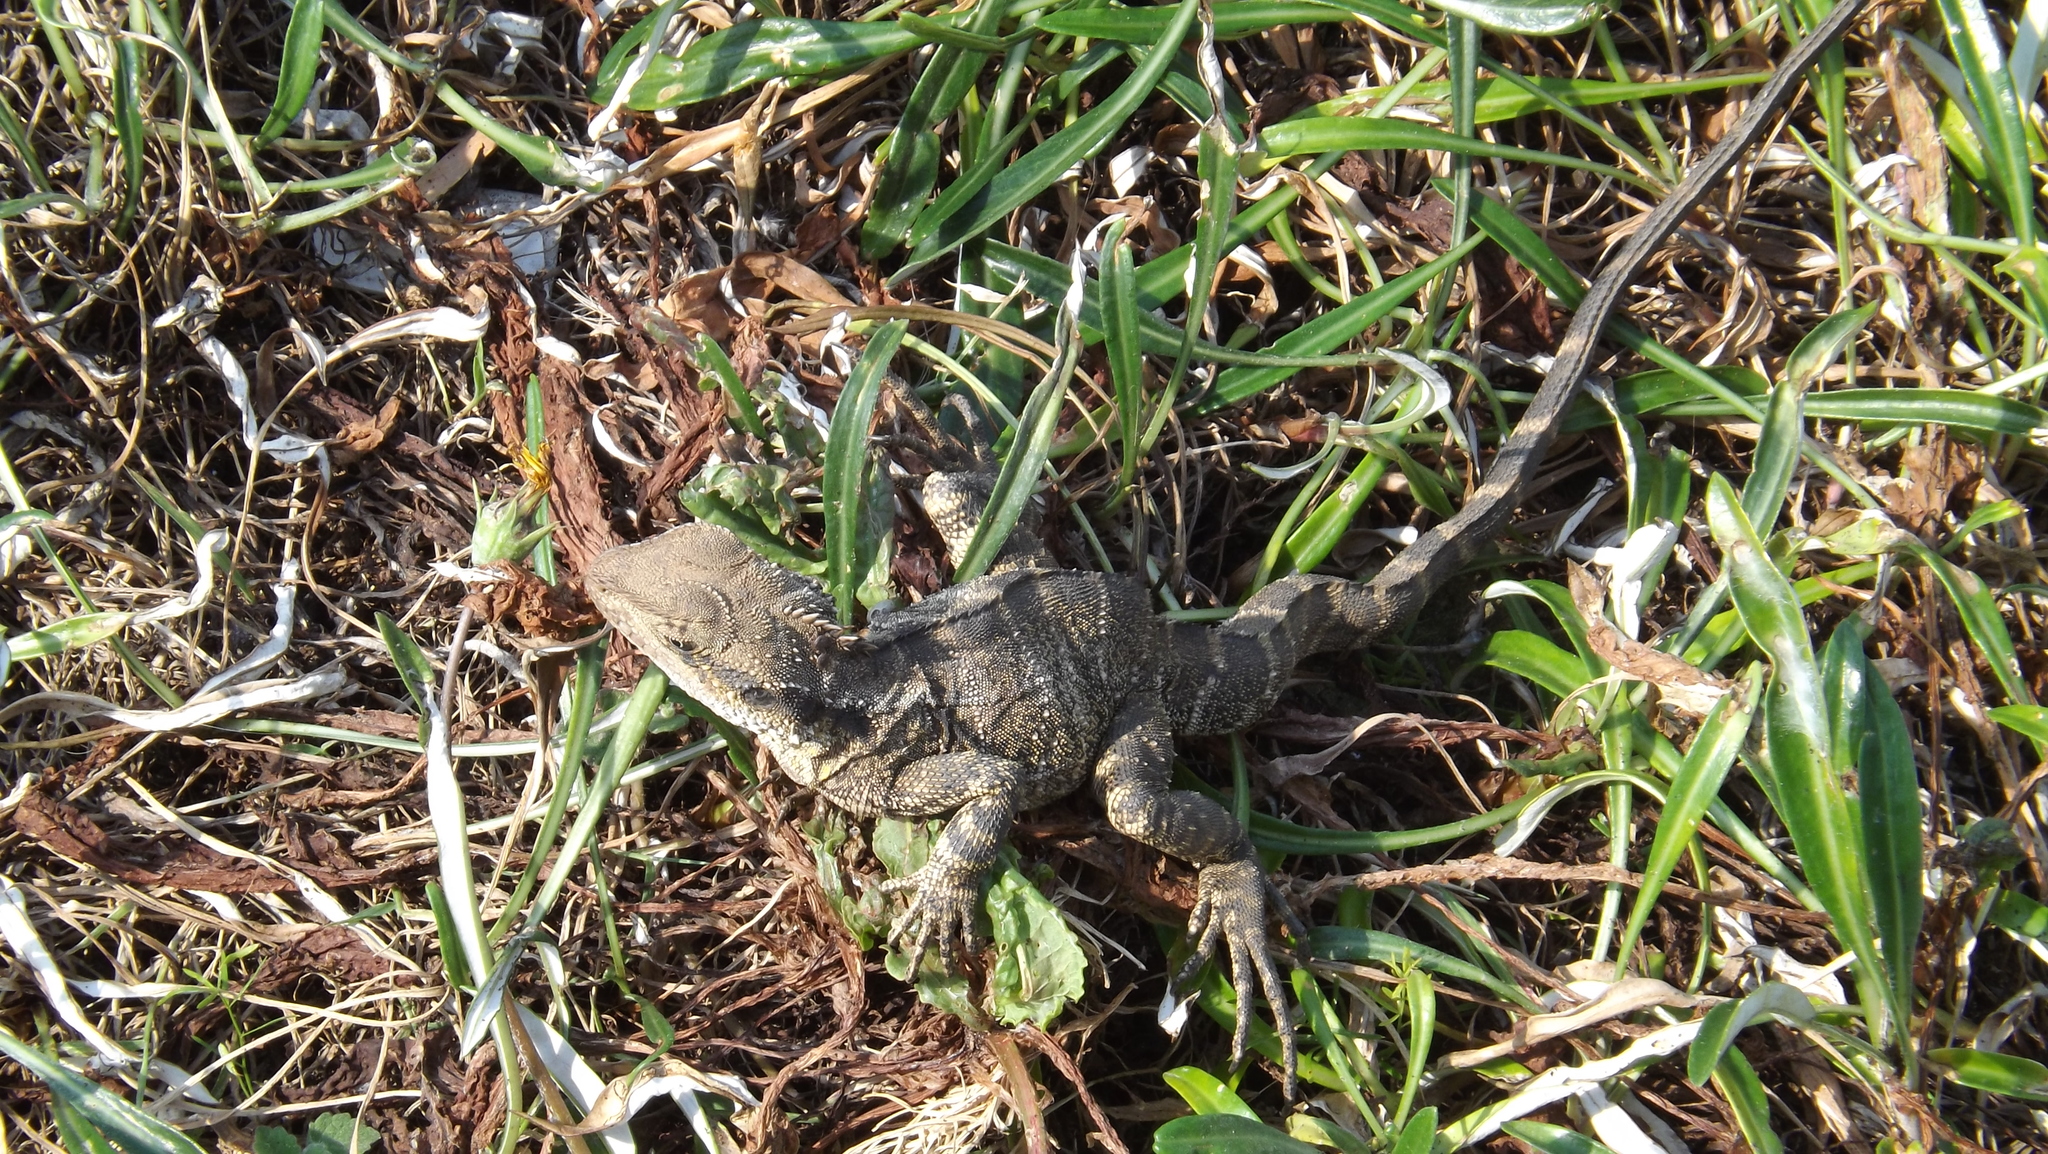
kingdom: Animalia
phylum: Chordata
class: Squamata
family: Agamidae
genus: Intellagama
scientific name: Intellagama lesueurii
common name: Eastern water dragon
